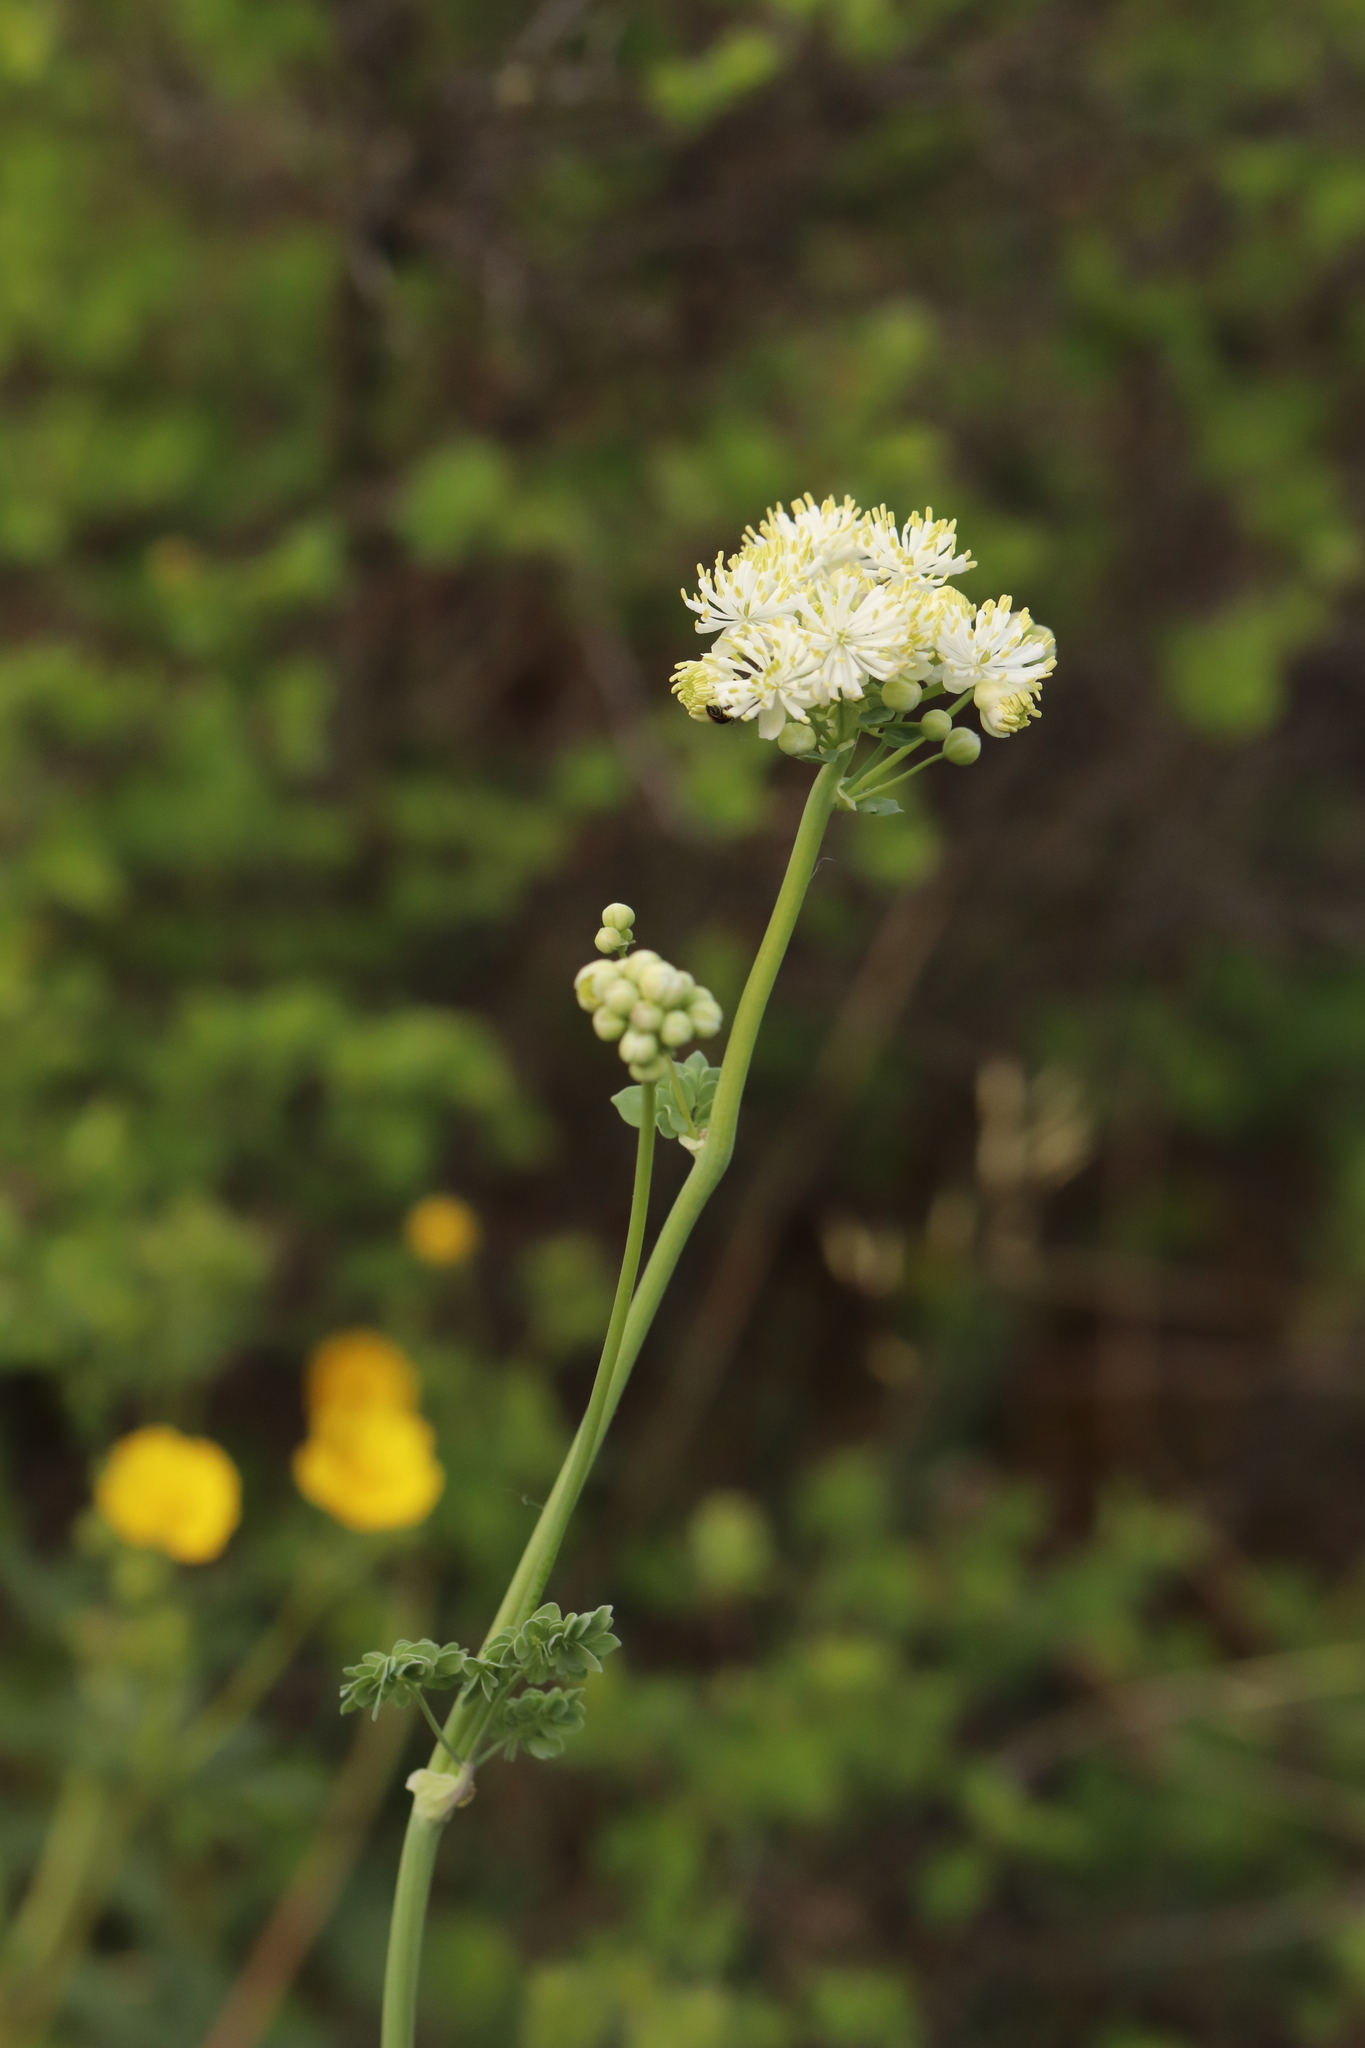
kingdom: Plantae
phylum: Tracheophyta
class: Magnoliopsida
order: Ranunculales
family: Ranunculaceae
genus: Thalictrum
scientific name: Thalictrum petaloideum
